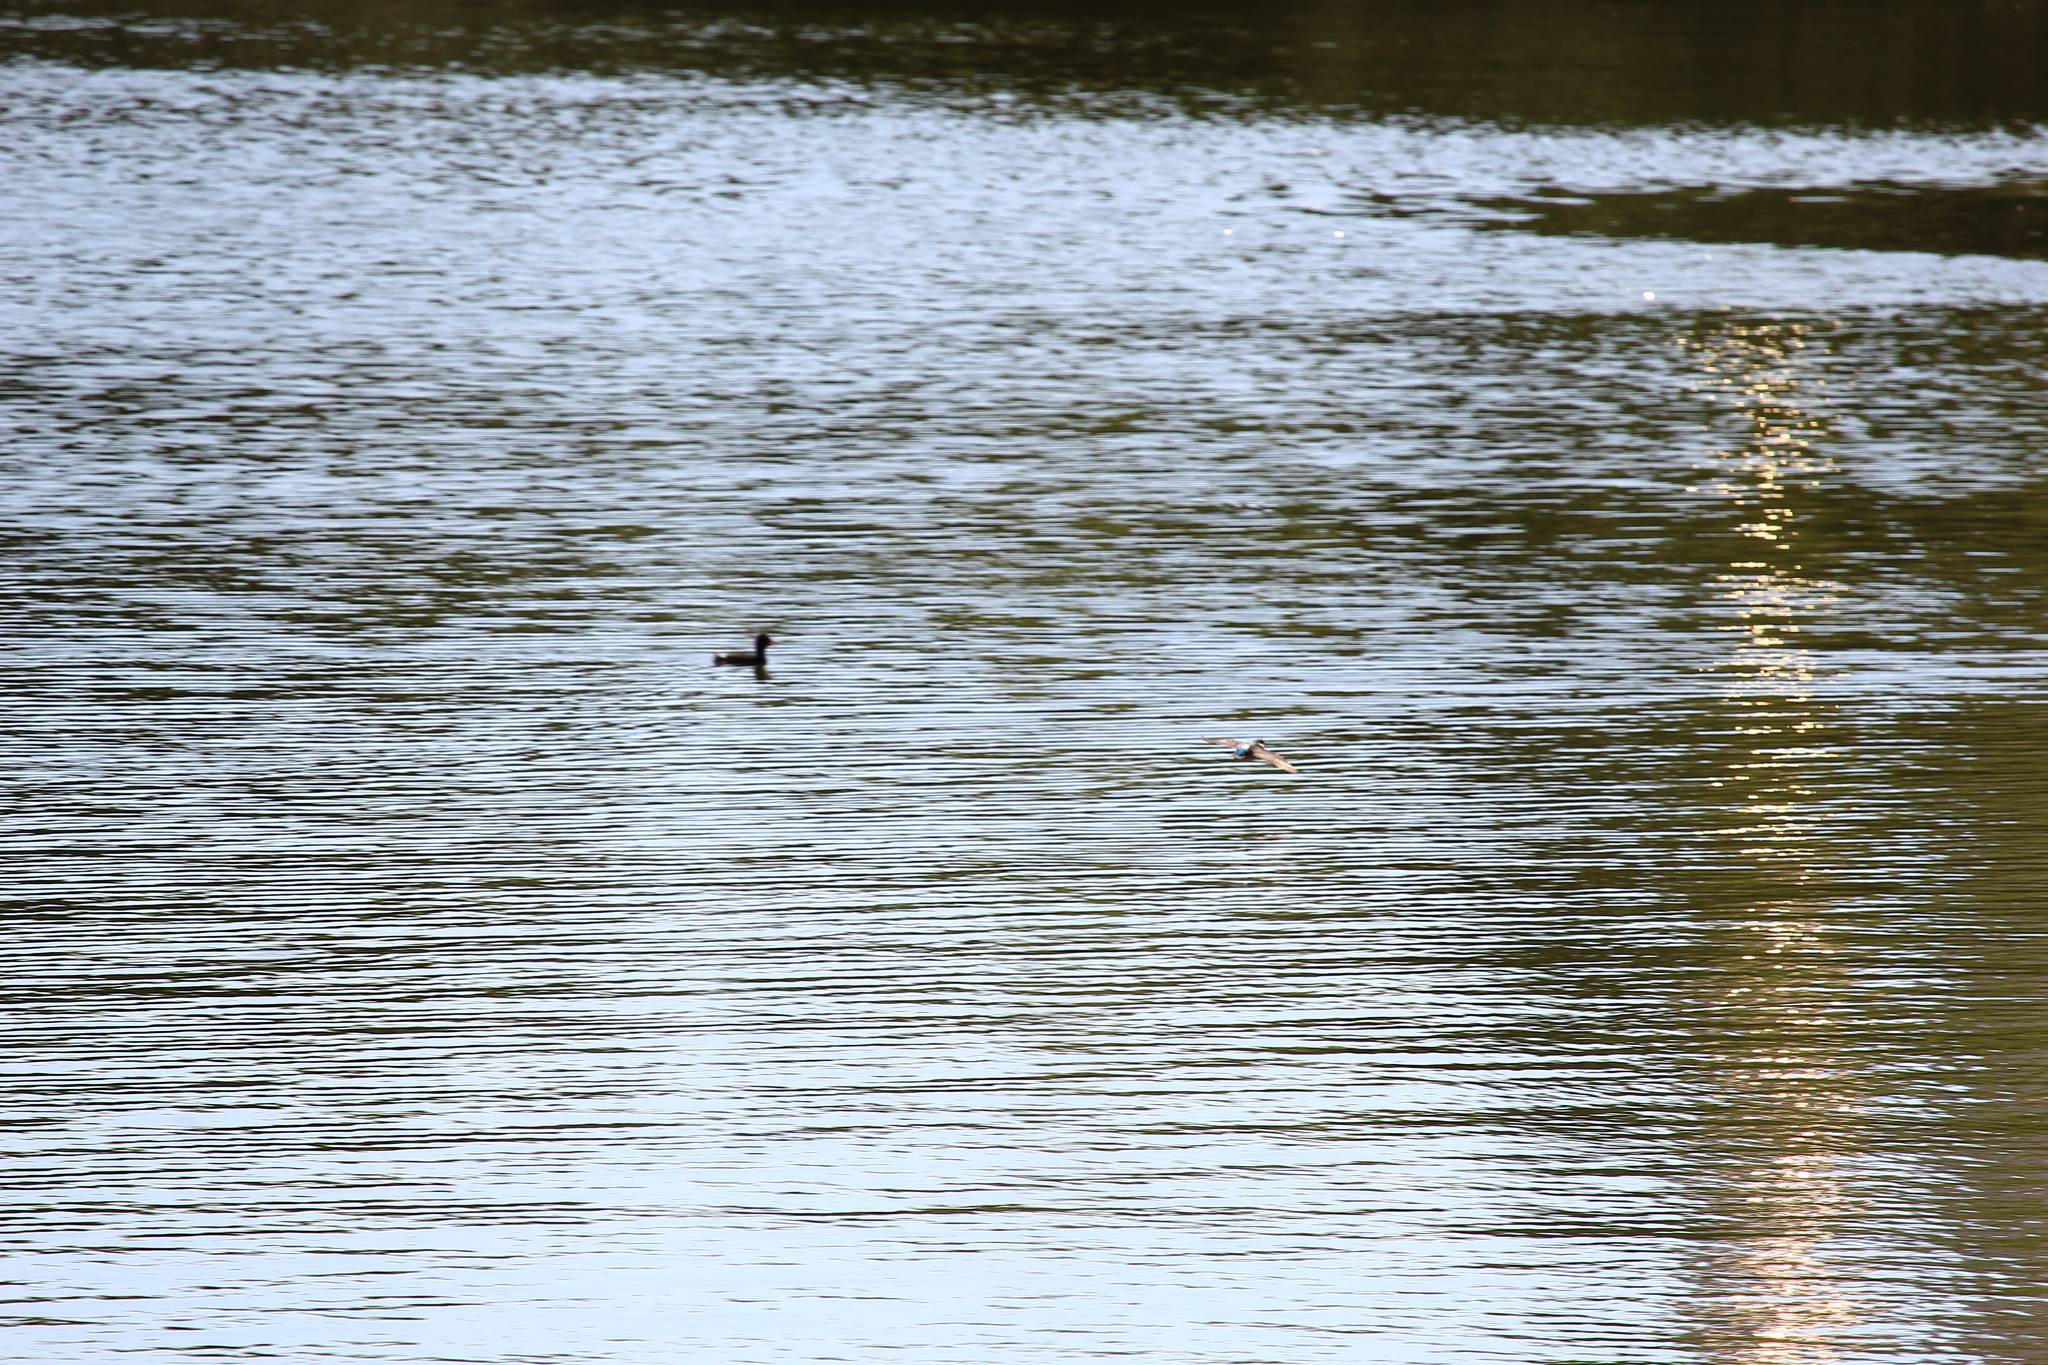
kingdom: Animalia
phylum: Chordata
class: Aves
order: Coraciiformes
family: Alcedinidae
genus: Alcedo
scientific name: Alcedo atthis
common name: Common kingfisher
